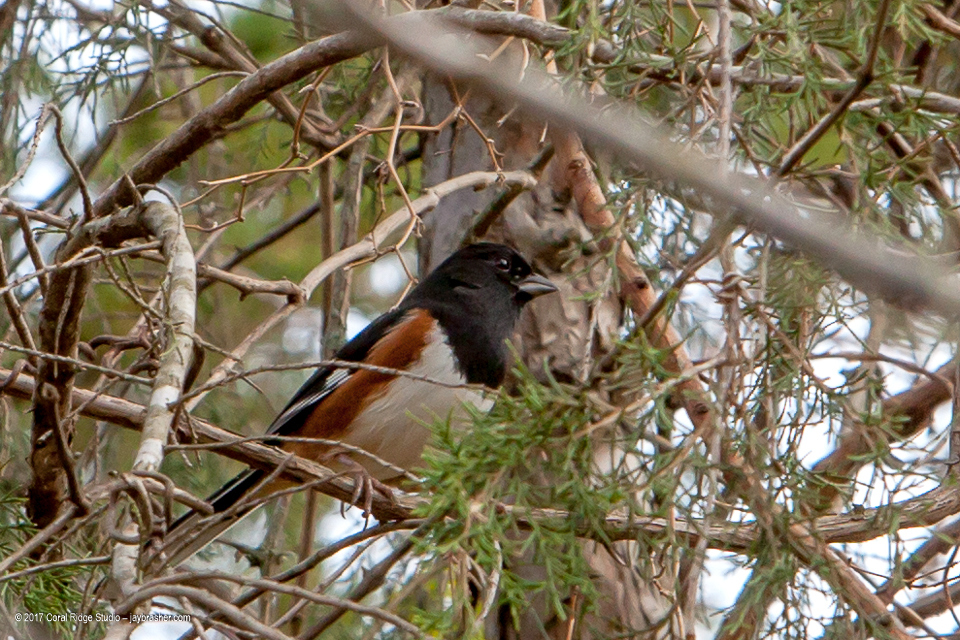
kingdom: Animalia
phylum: Chordata
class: Aves
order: Passeriformes
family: Passerellidae
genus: Pipilo
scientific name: Pipilo erythrophthalmus
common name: Eastern towhee
